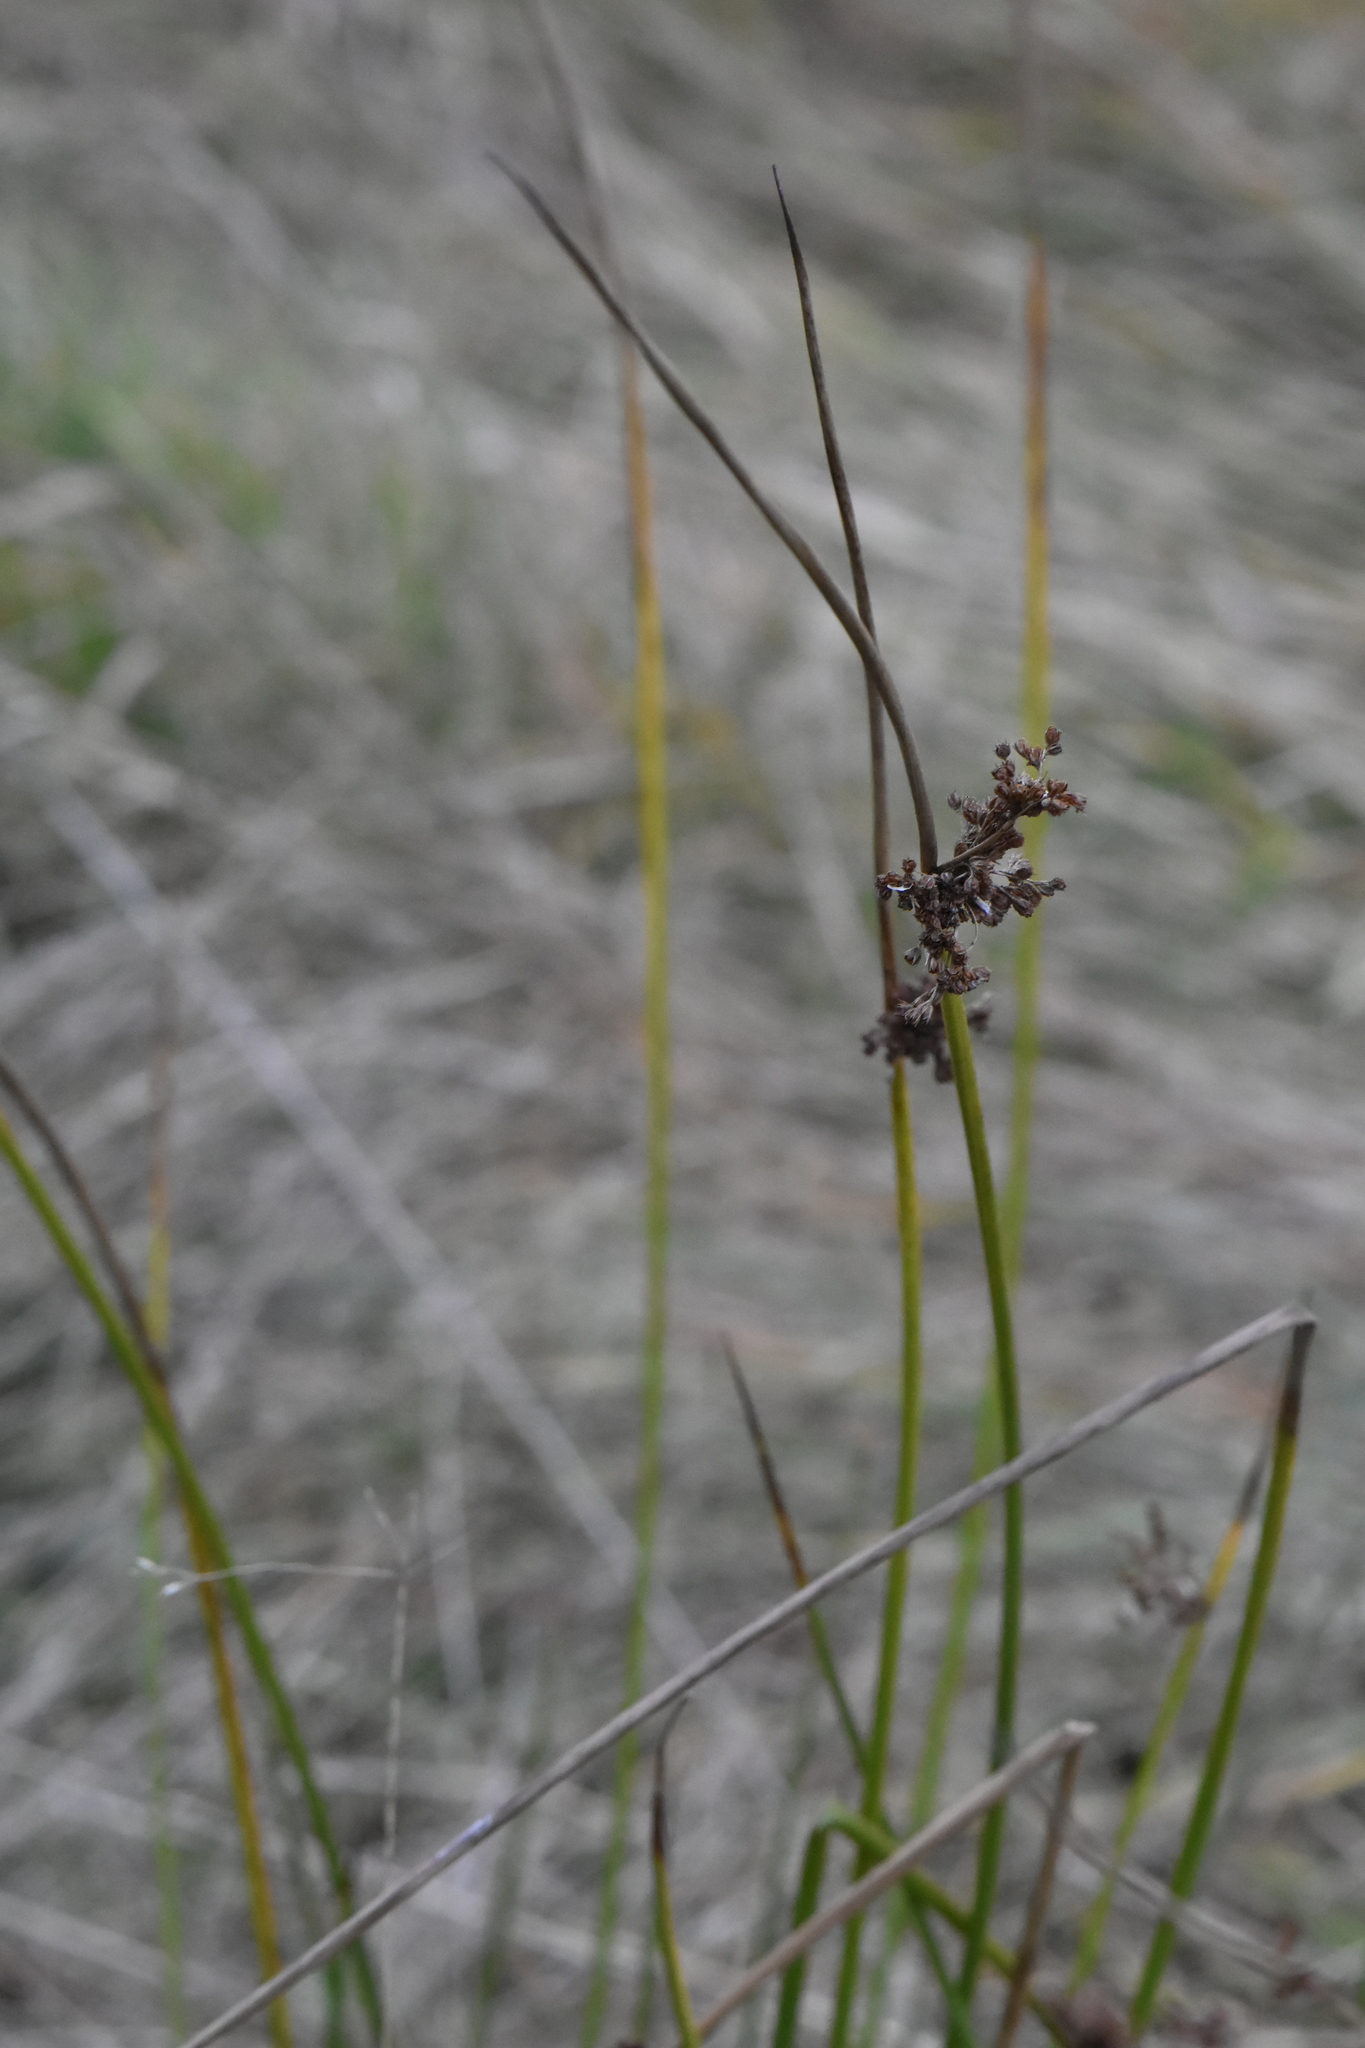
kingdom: Plantae
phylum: Tracheophyta
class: Liliopsida
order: Poales
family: Juncaceae
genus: Juncus
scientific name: Juncus effusus
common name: Soft rush
